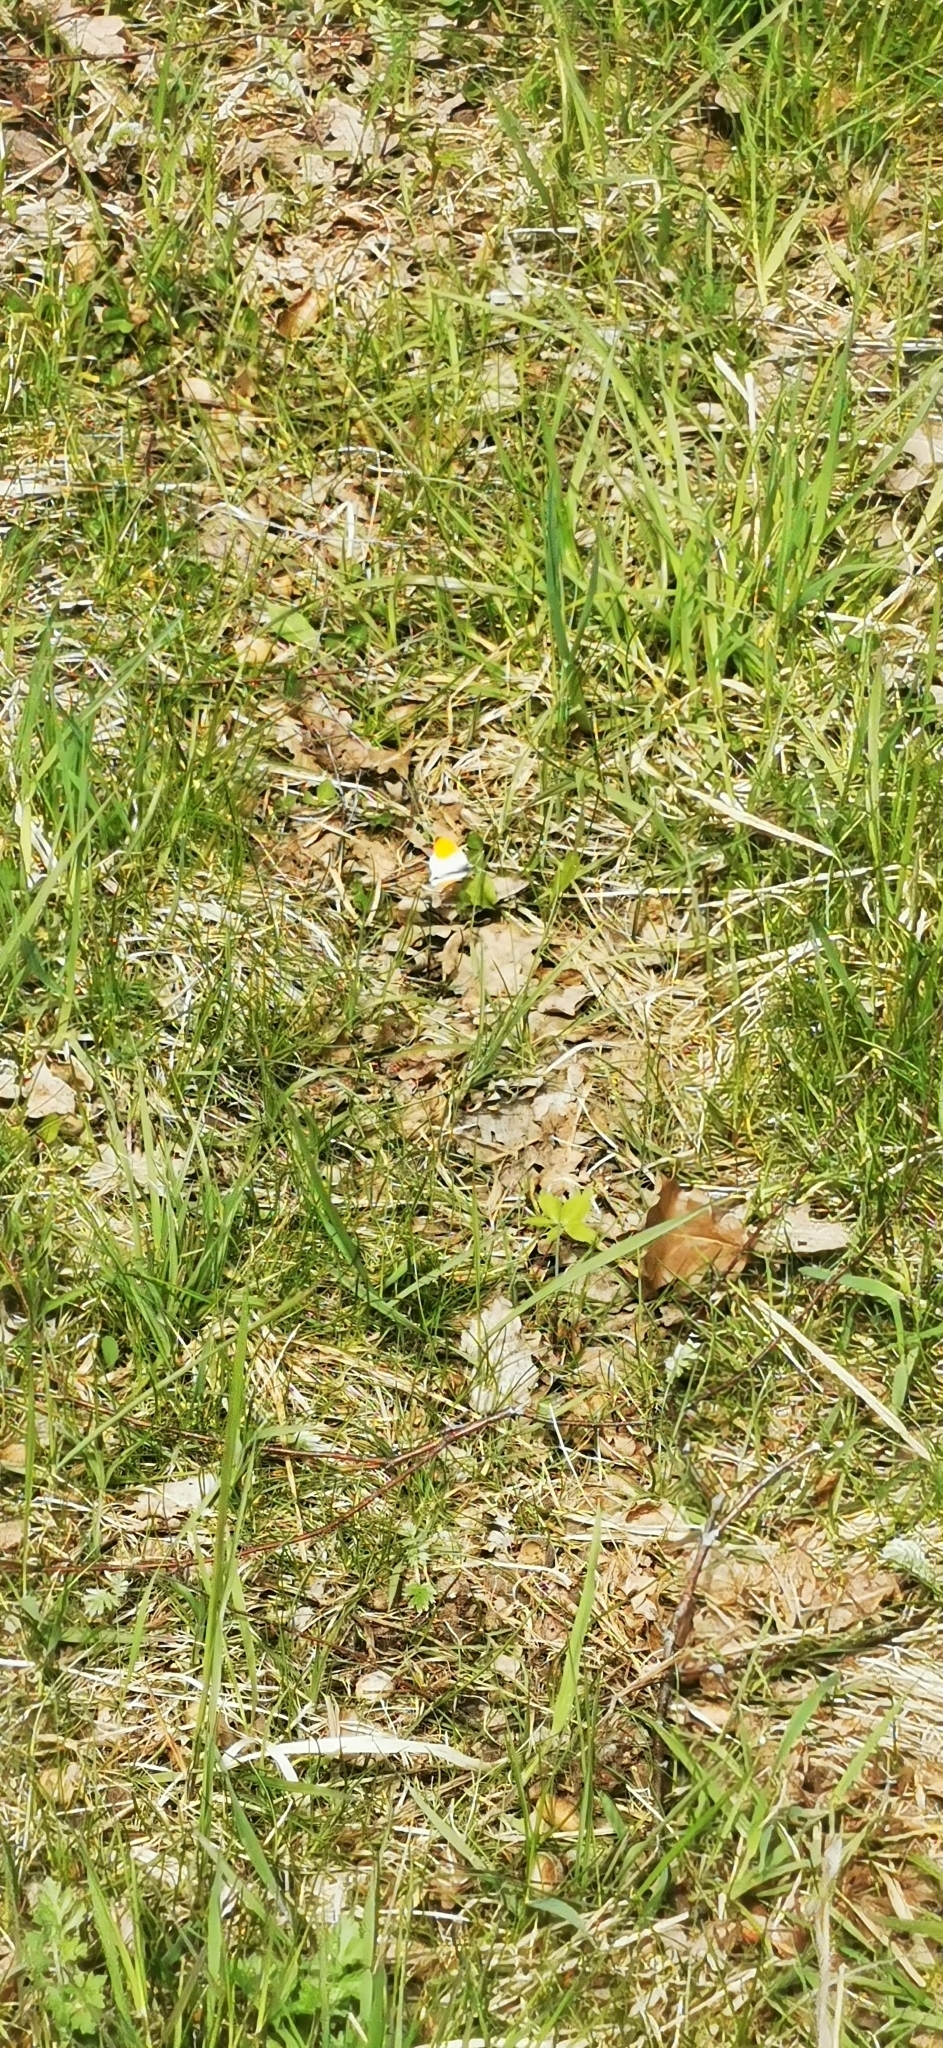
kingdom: Animalia
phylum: Arthropoda
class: Insecta
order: Lepidoptera
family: Pieridae
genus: Anthocharis
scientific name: Anthocharis cardamines
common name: Orange-tip
